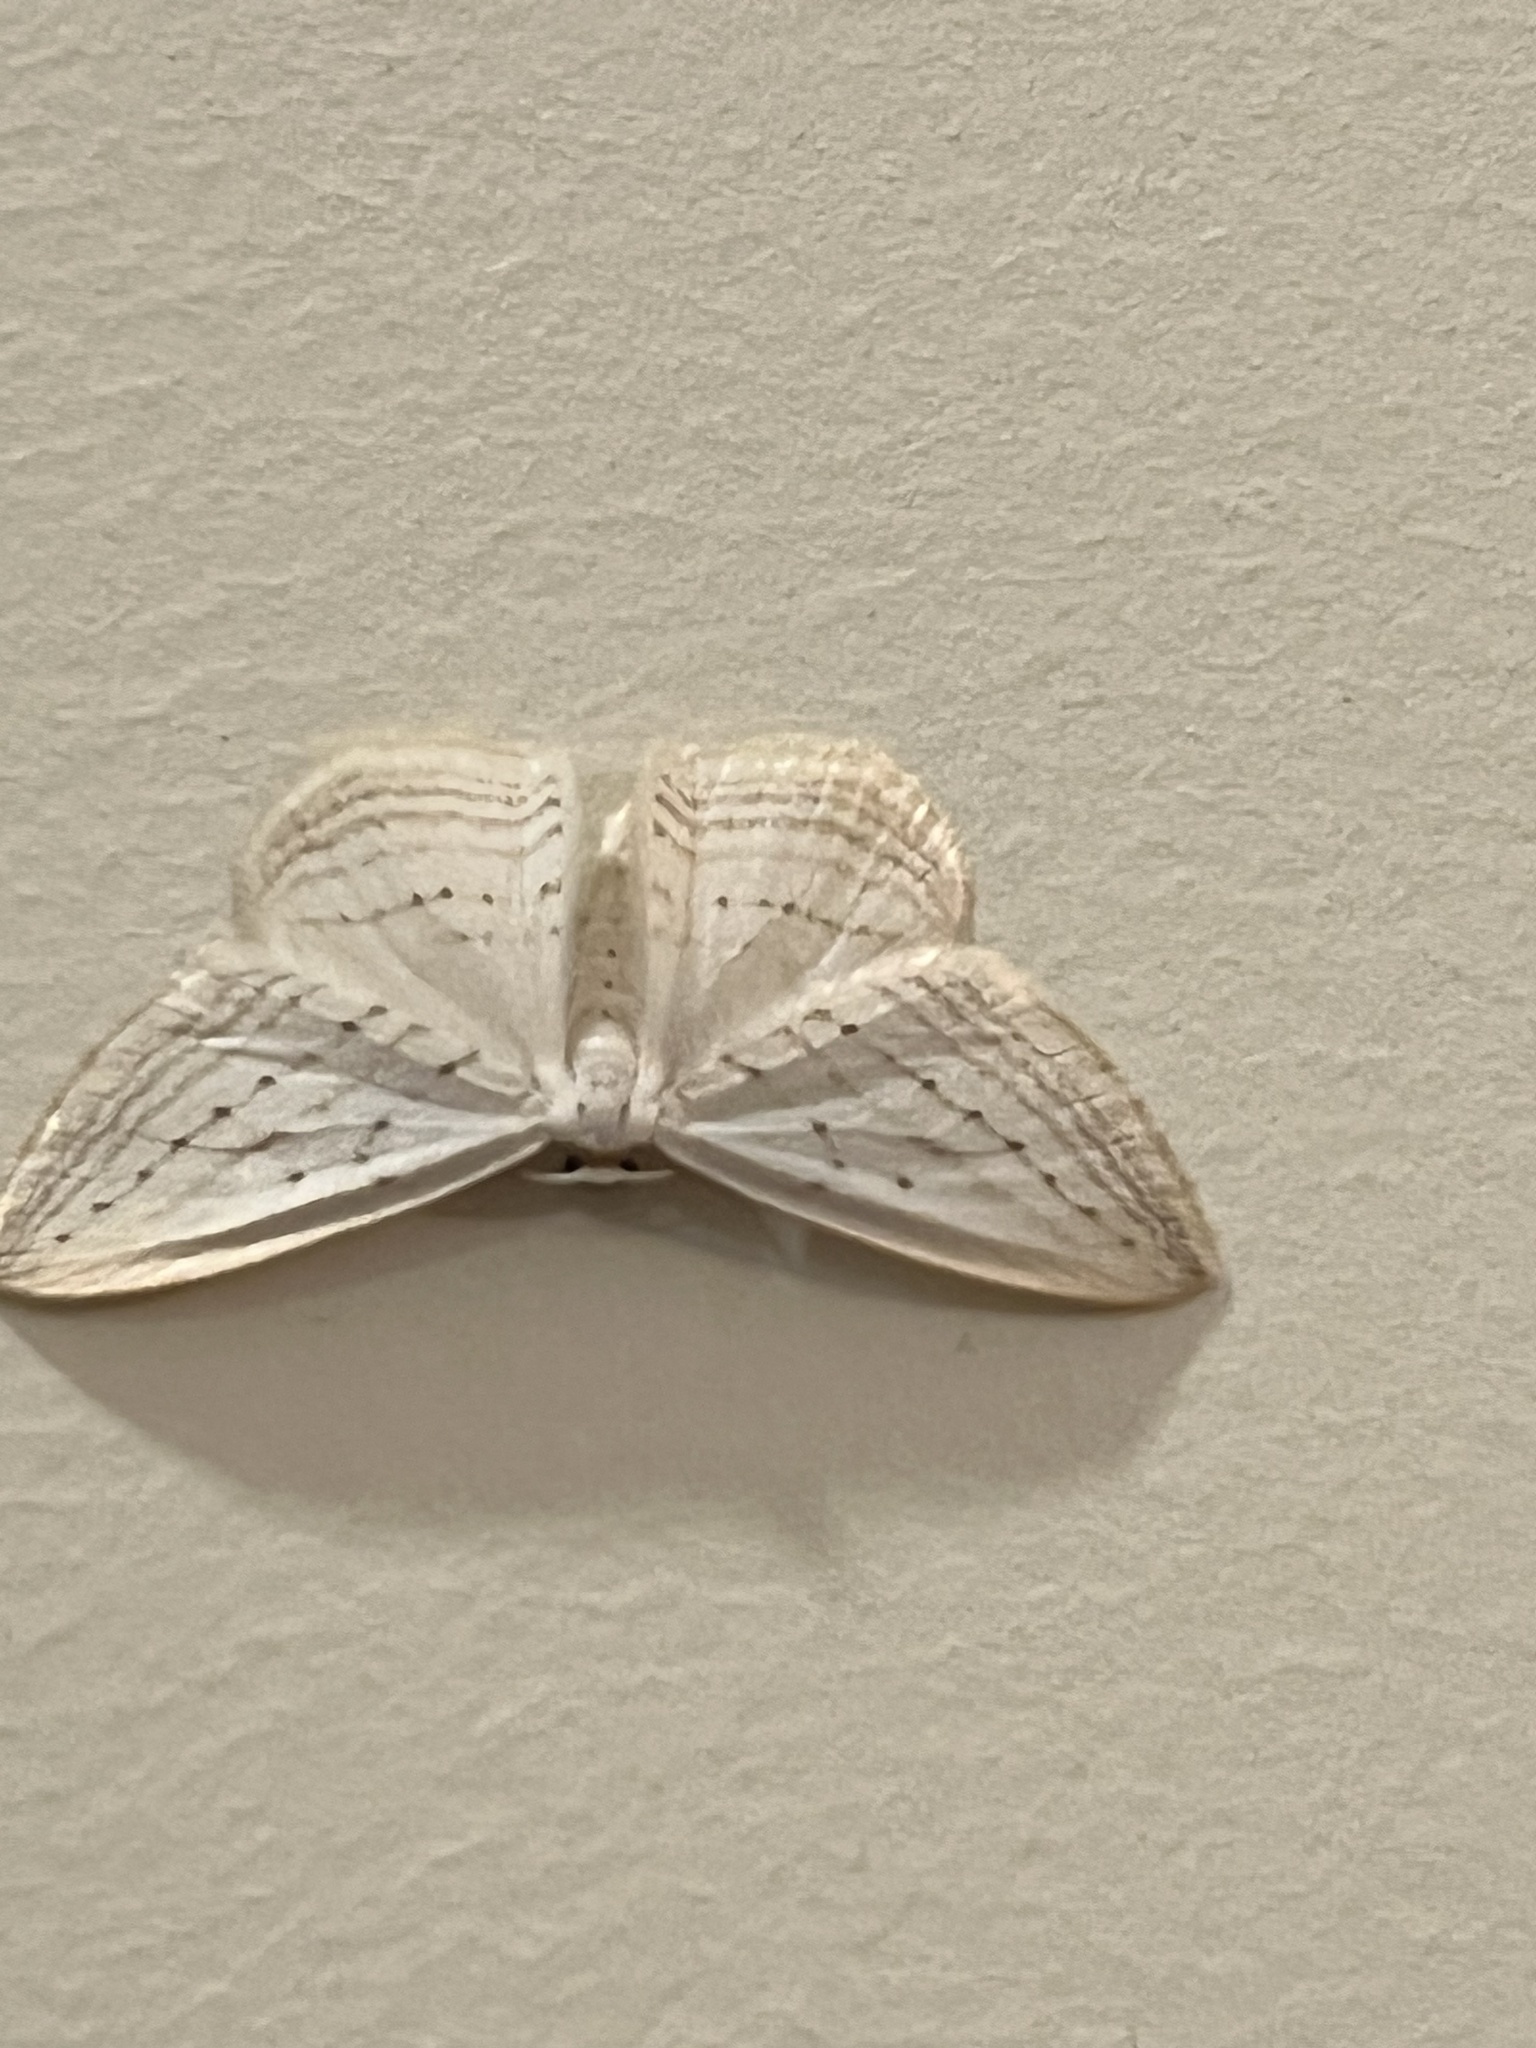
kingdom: Animalia
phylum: Arthropoda
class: Insecta
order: Lepidoptera
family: Geometridae
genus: Orthoclydon
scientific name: Orthoclydon praefectata
